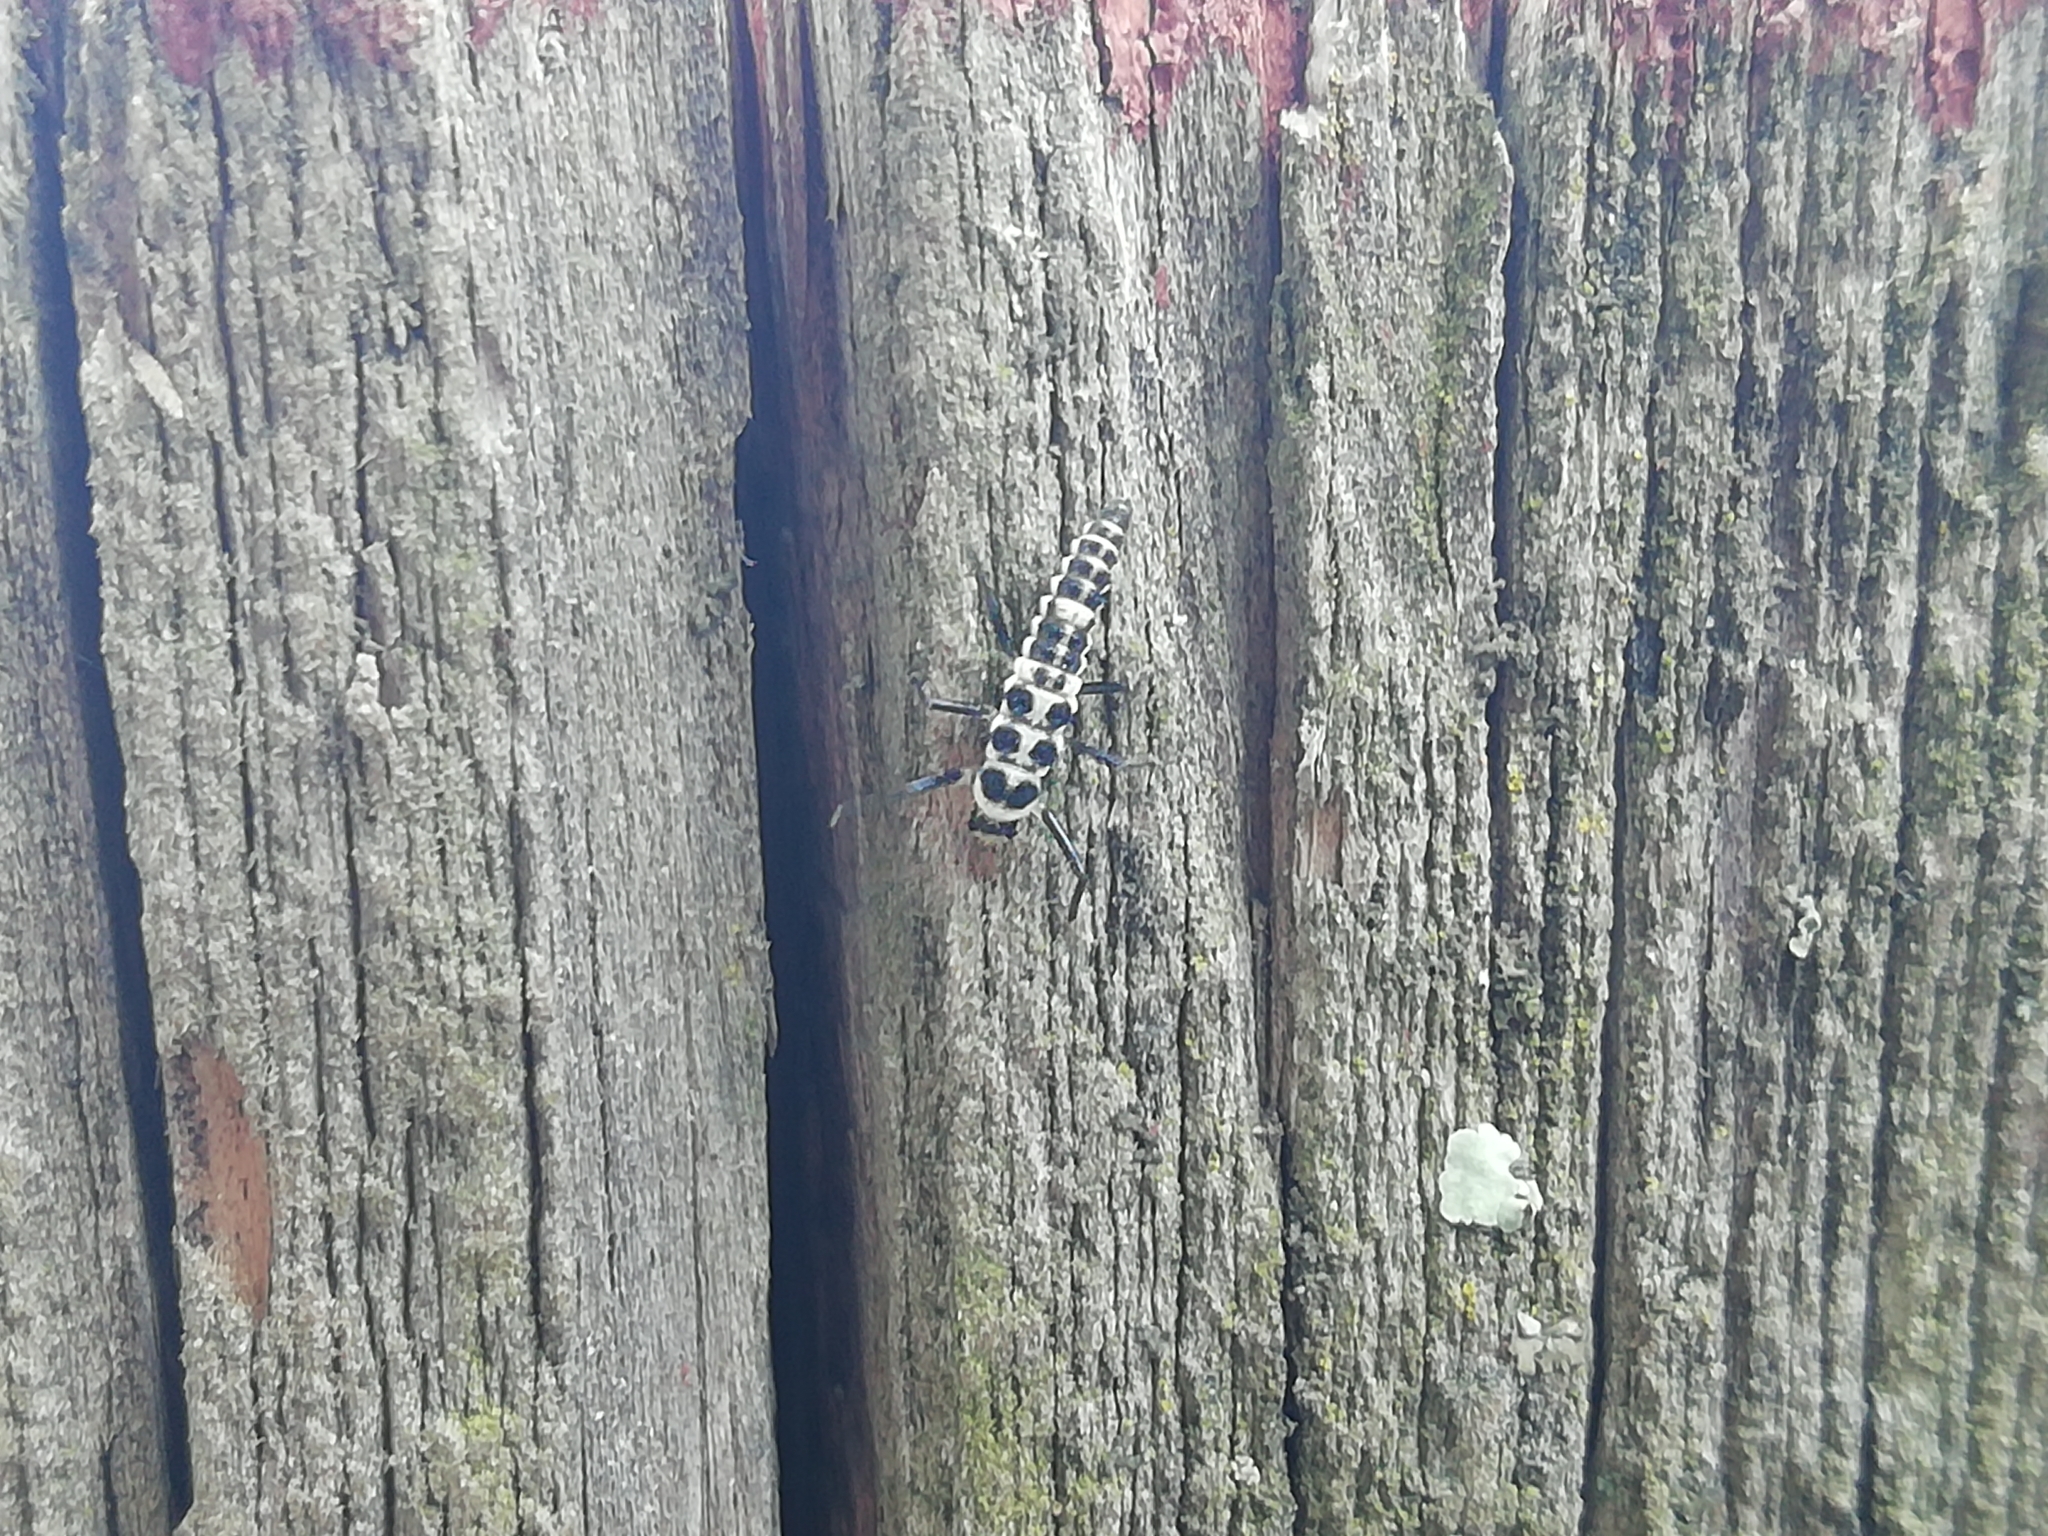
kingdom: Animalia
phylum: Arthropoda
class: Insecta
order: Coleoptera
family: Coccinellidae
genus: Calvia
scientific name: Calvia decemguttata
